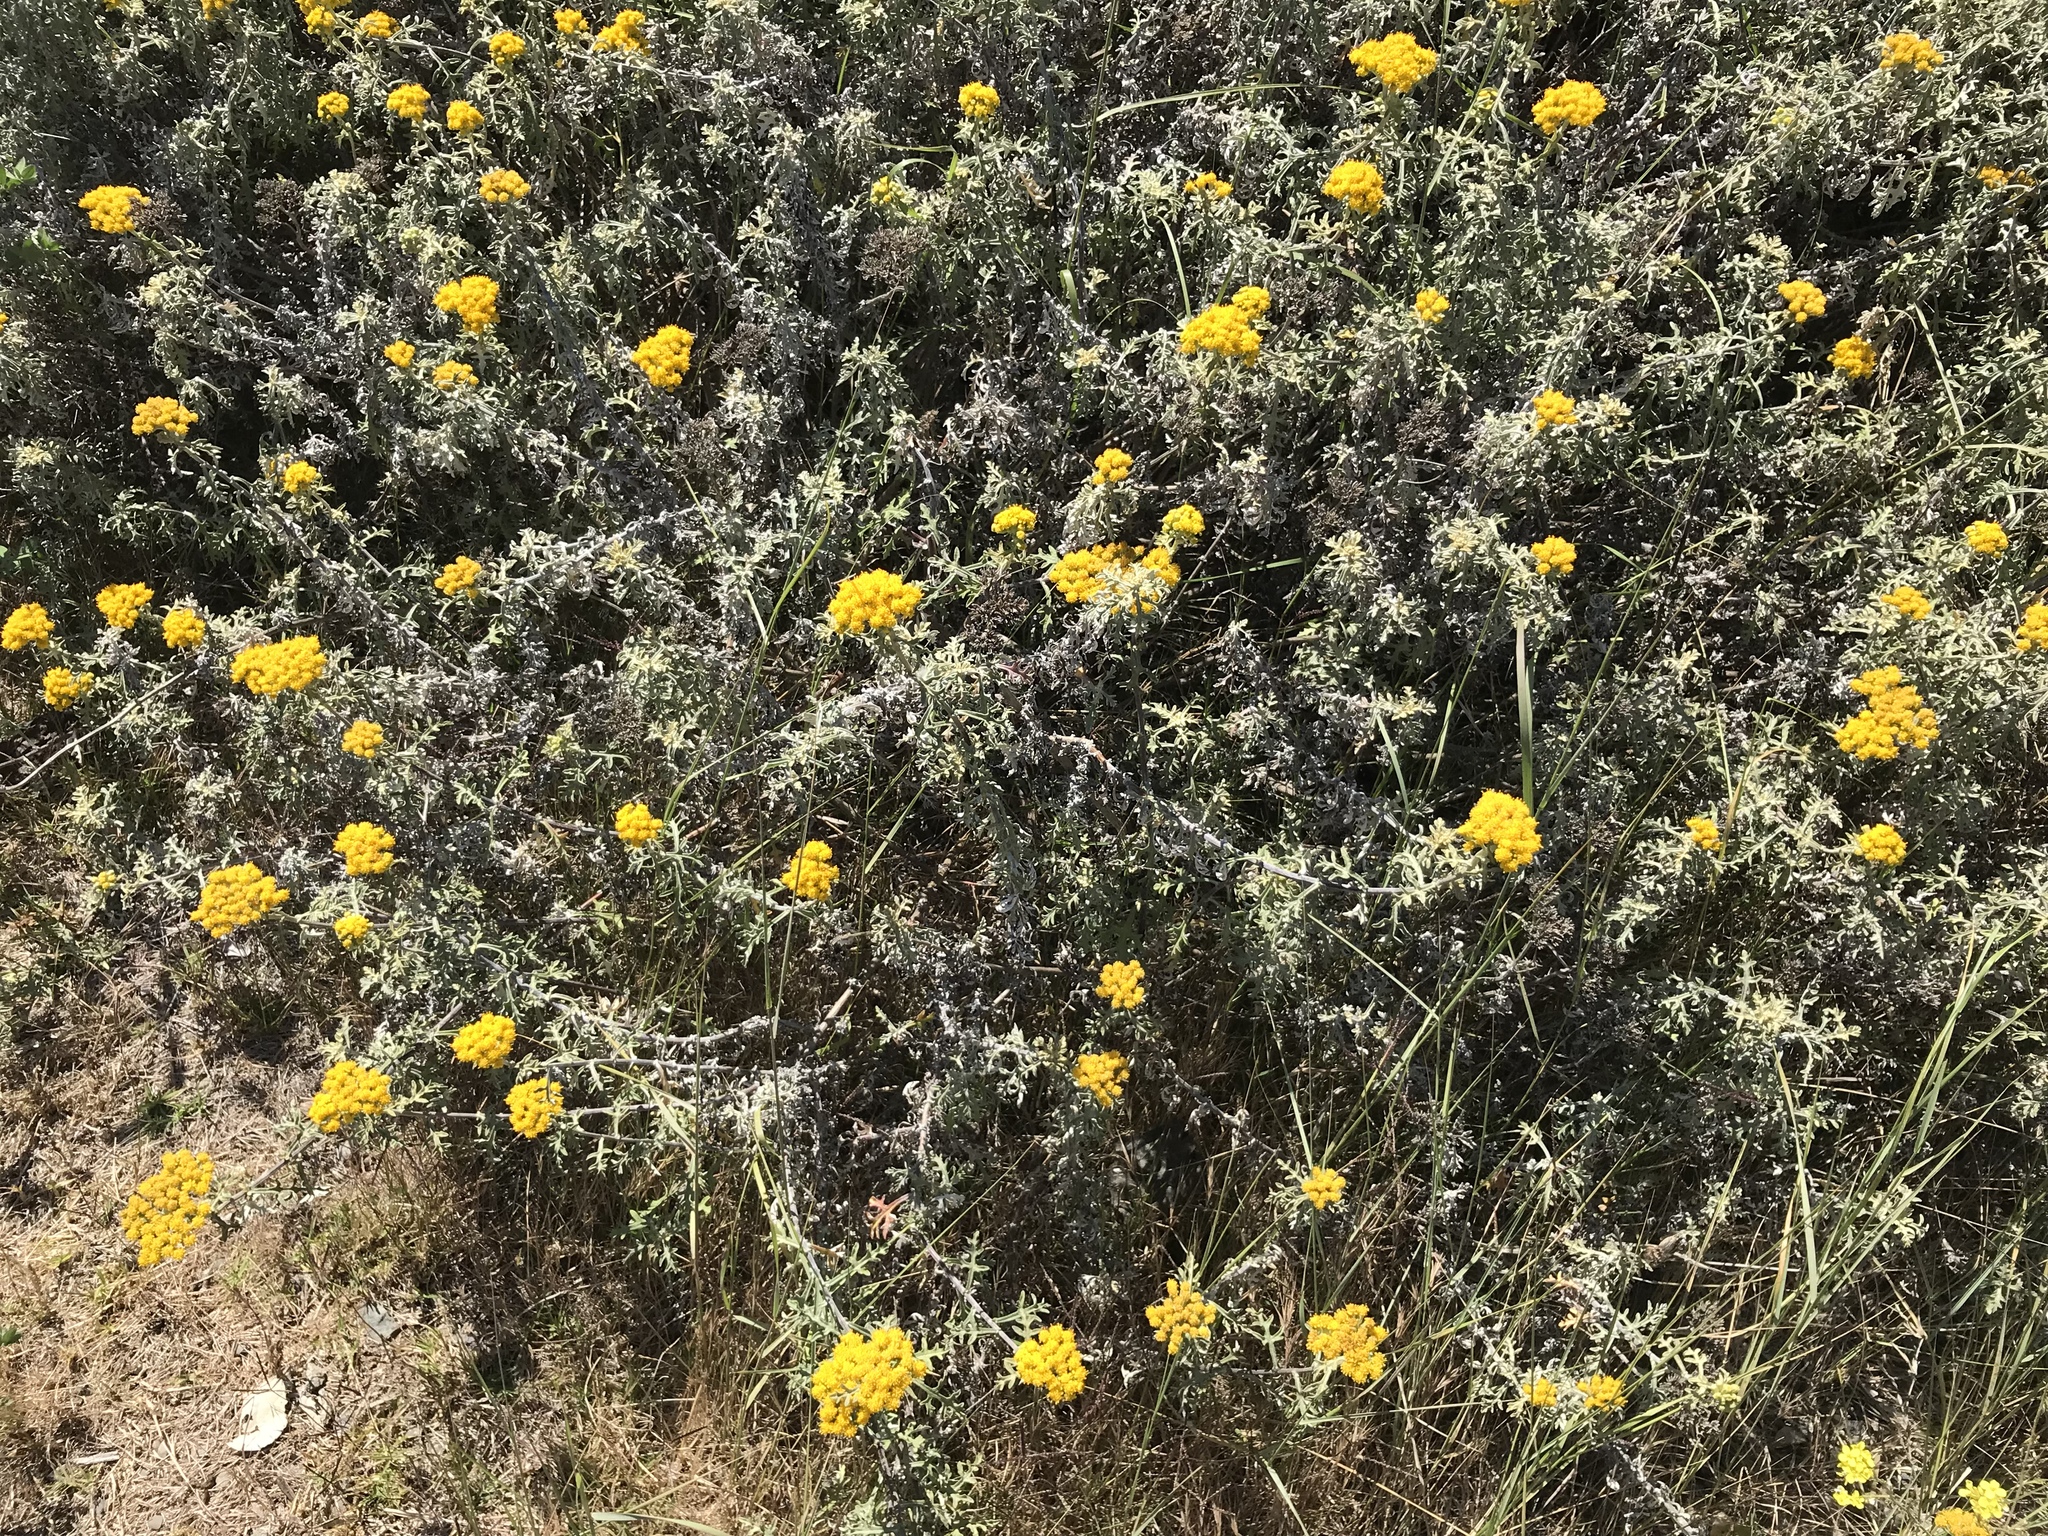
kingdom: Plantae
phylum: Tracheophyta
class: Magnoliopsida
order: Asterales
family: Asteraceae
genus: Eriophyllum
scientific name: Eriophyllum staechadifolium
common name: Lizardtail
